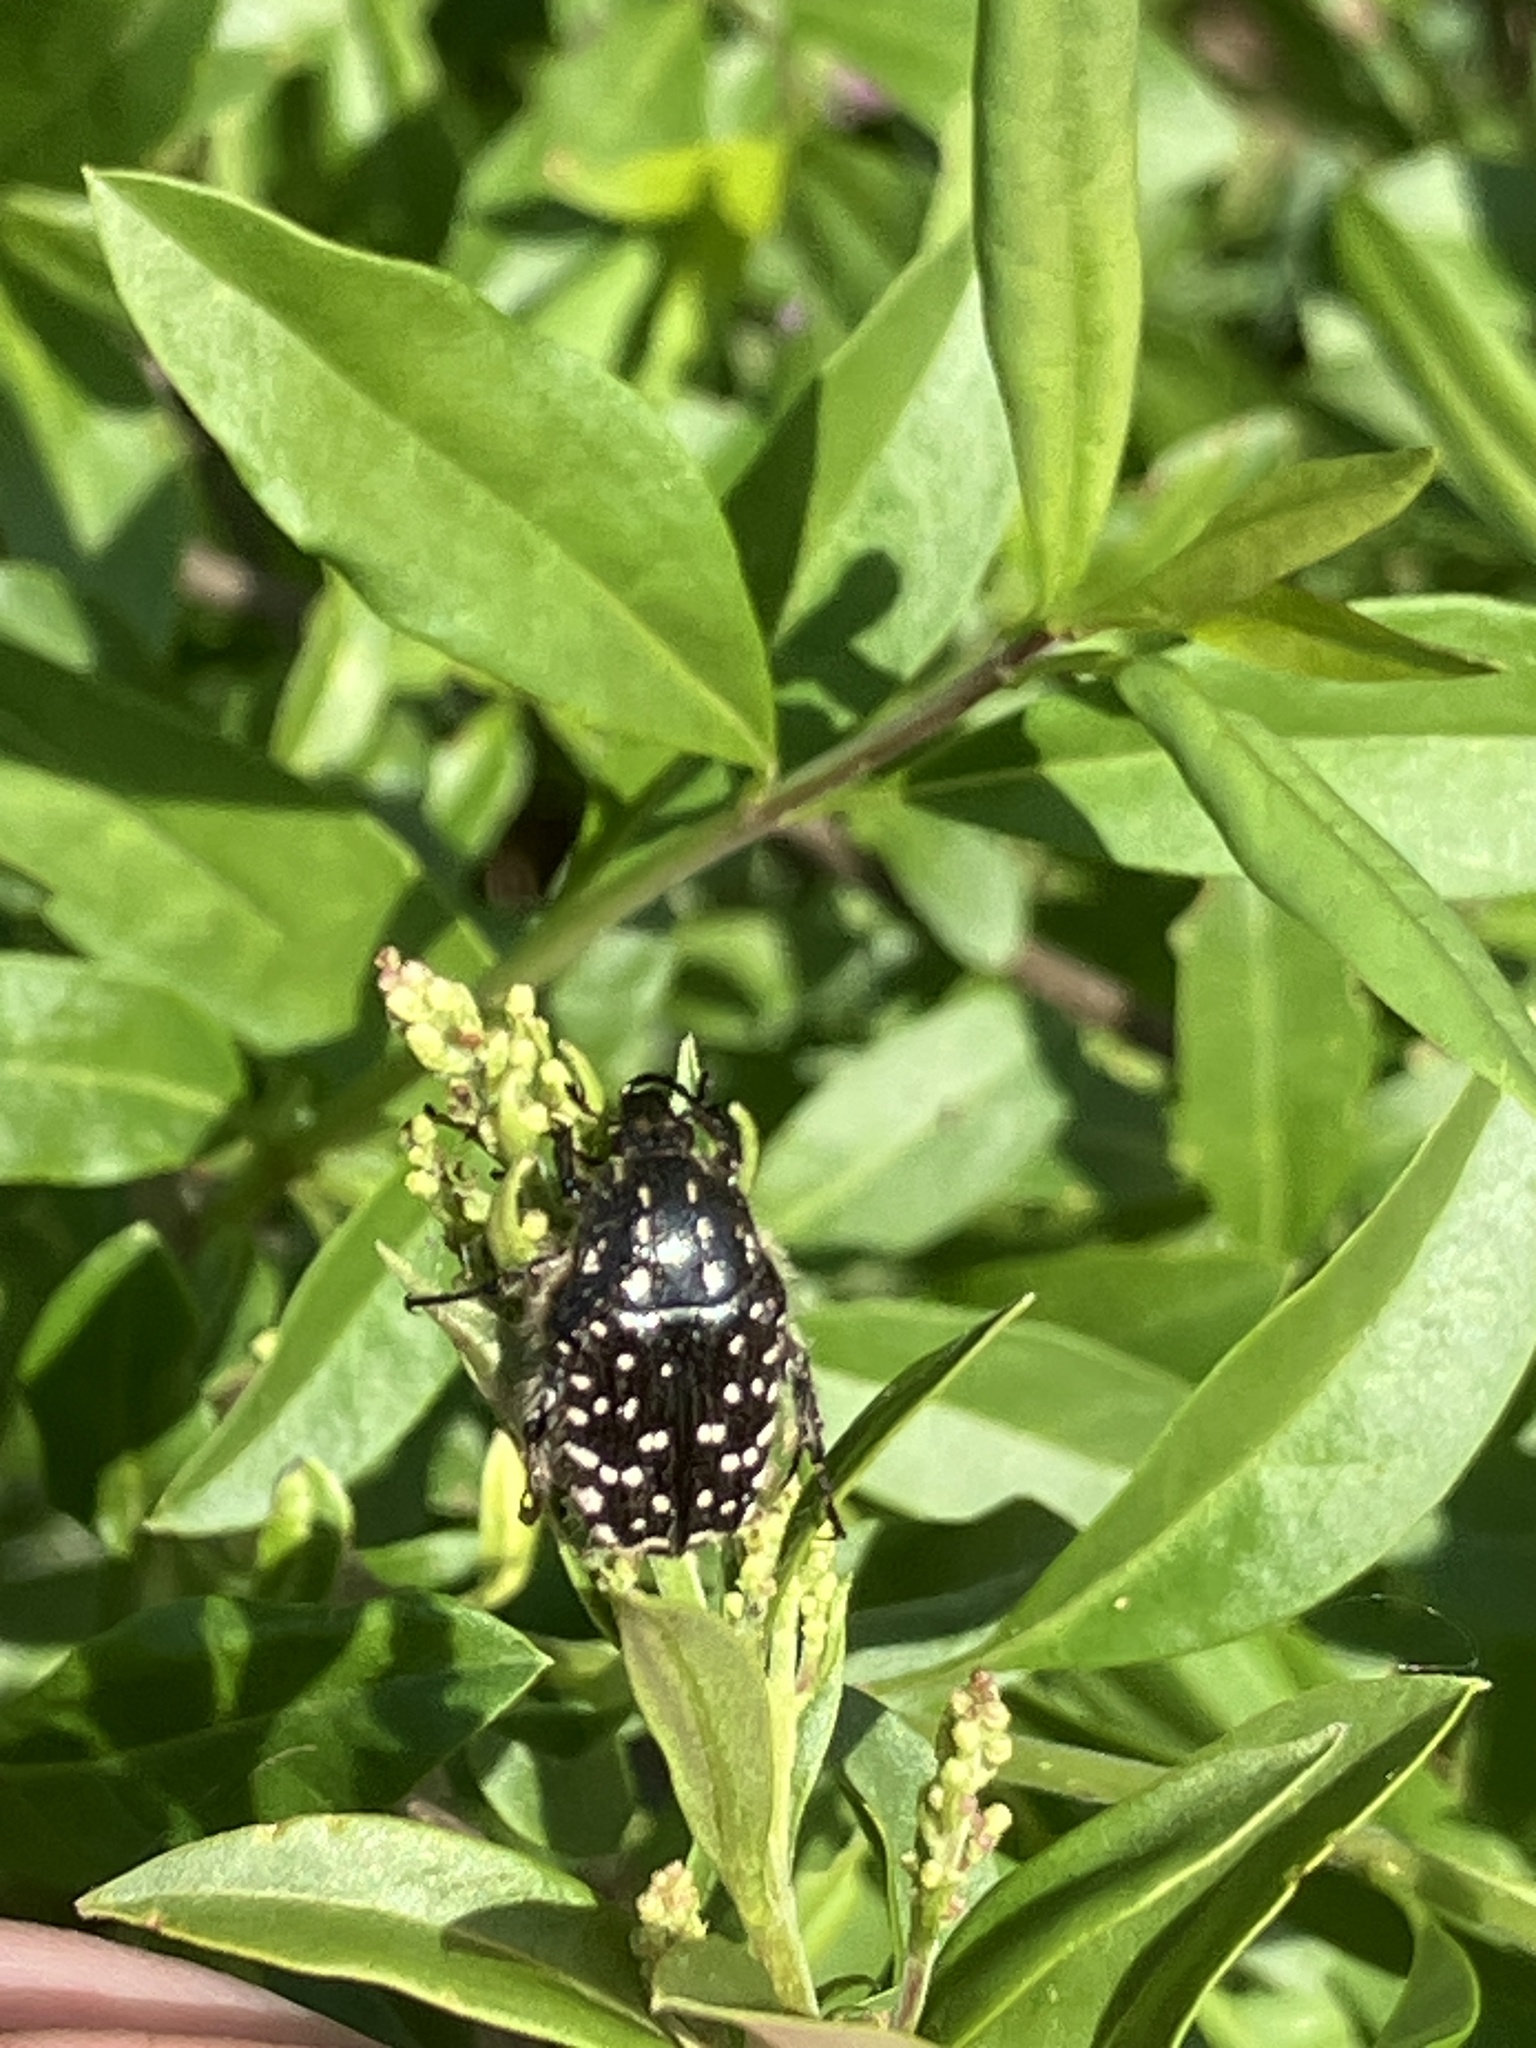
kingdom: Animalia
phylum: Arthropoda
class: Insecta
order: Coleoptera
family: Scarabaeidae
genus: Oxythyrea
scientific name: Oxythyrea funesta
